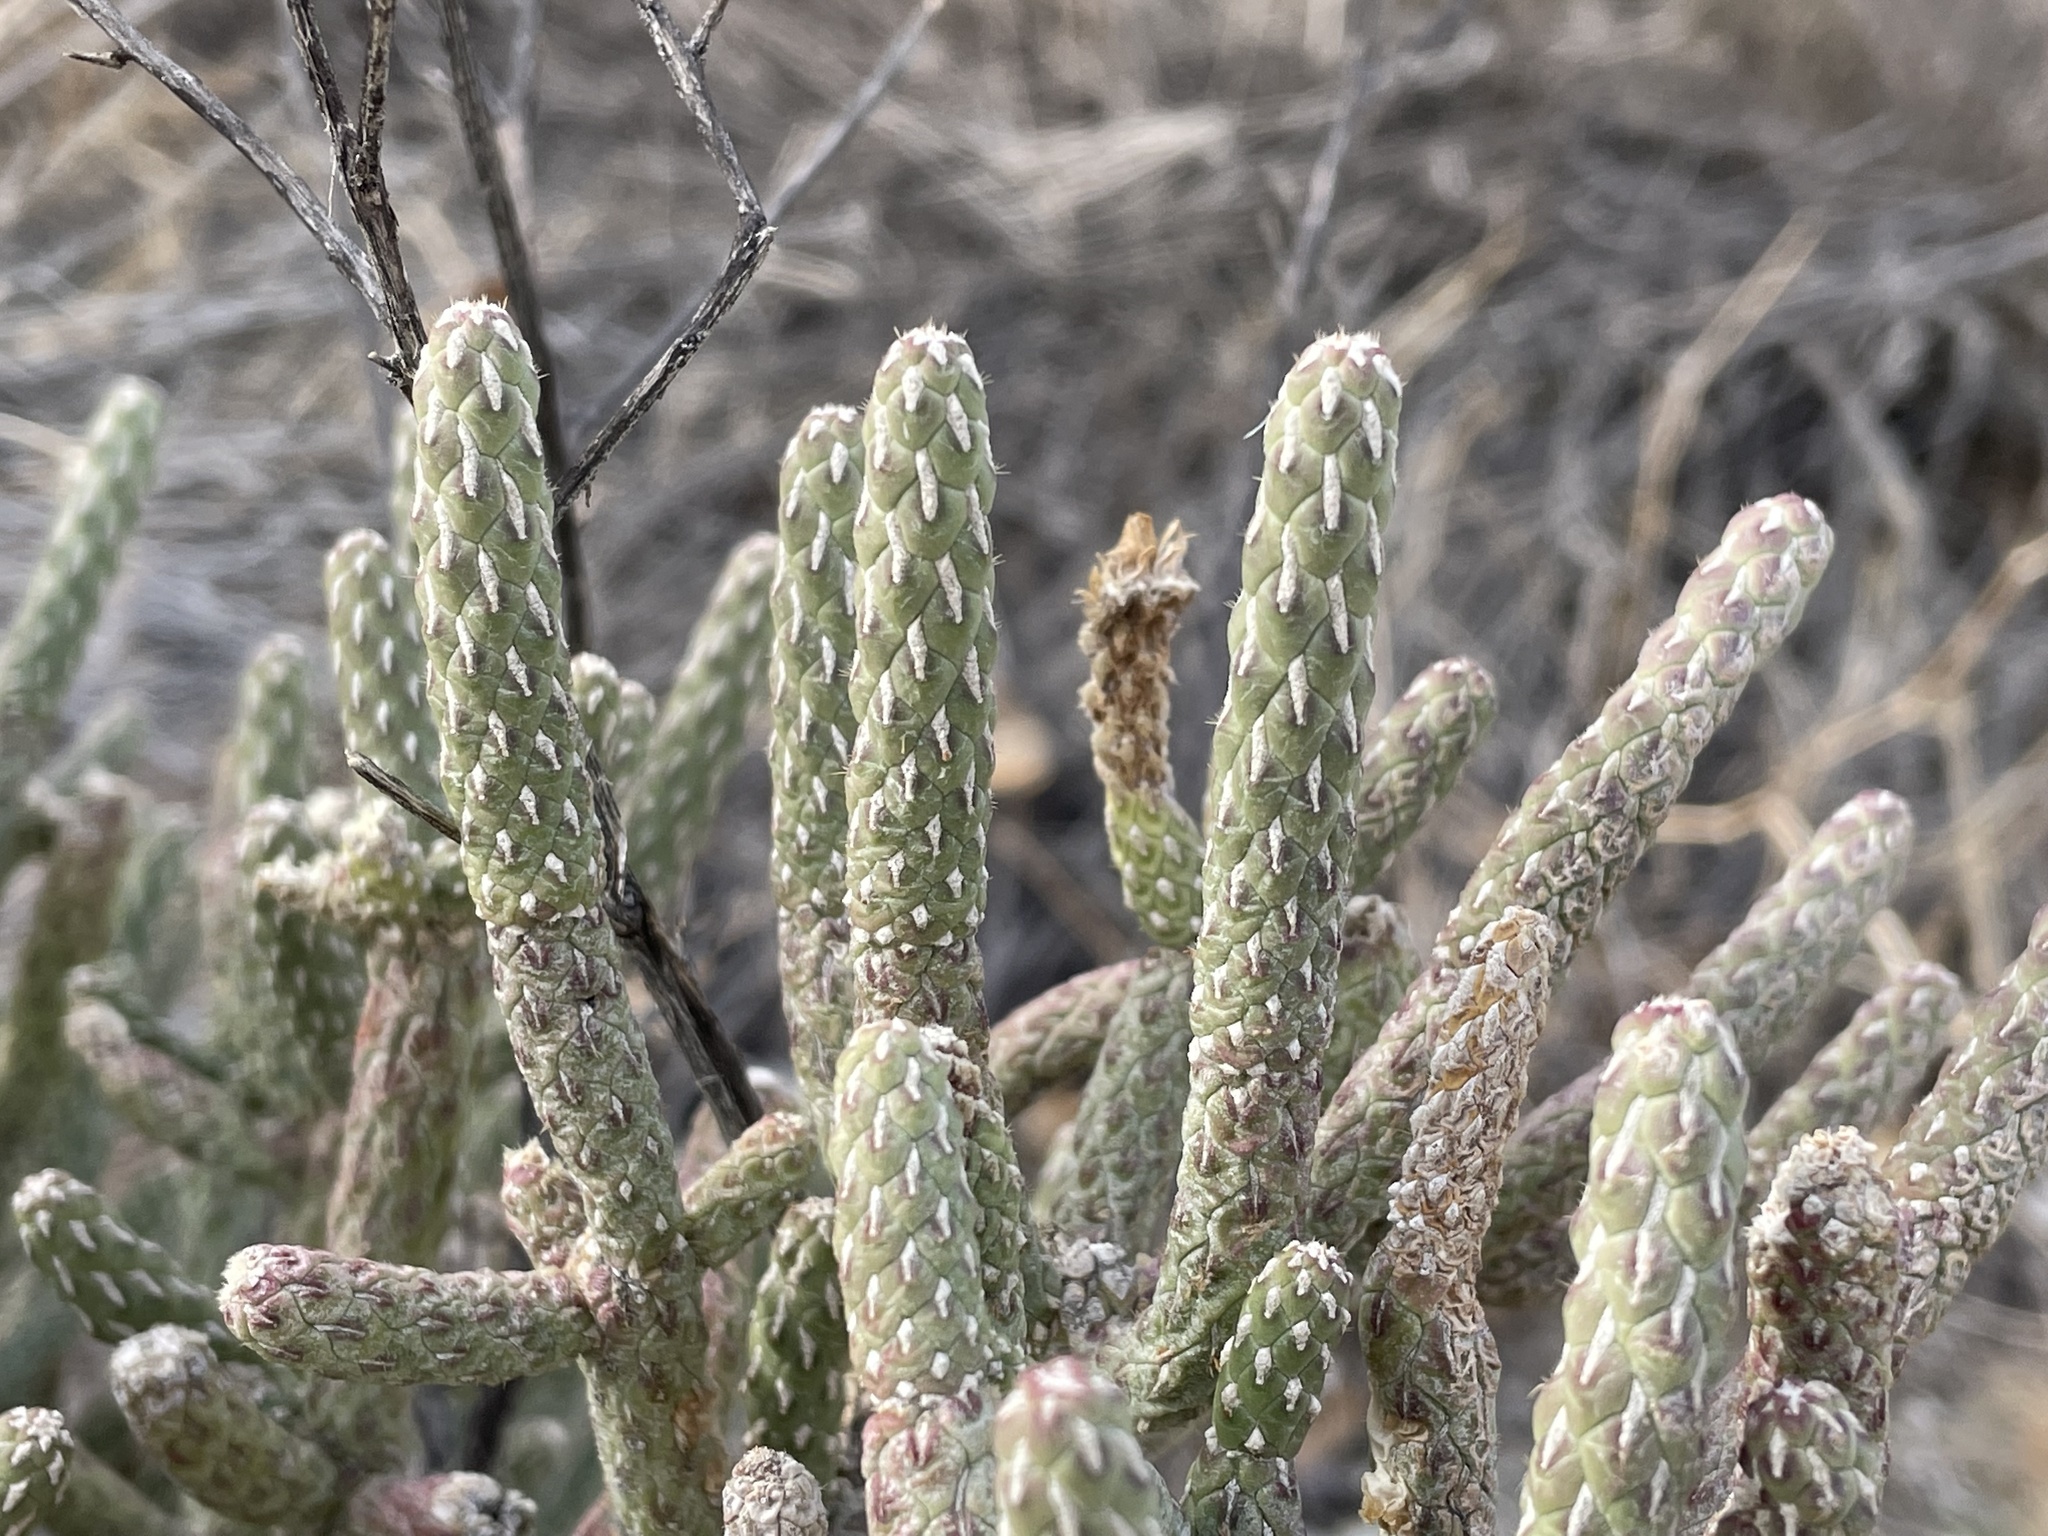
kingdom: Plantae
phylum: Tracheophyta
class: Magnoliopsida
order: Caryophyllales
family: Cactaceae
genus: Cylindropuntia
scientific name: Cylindropuntia ramosissima
